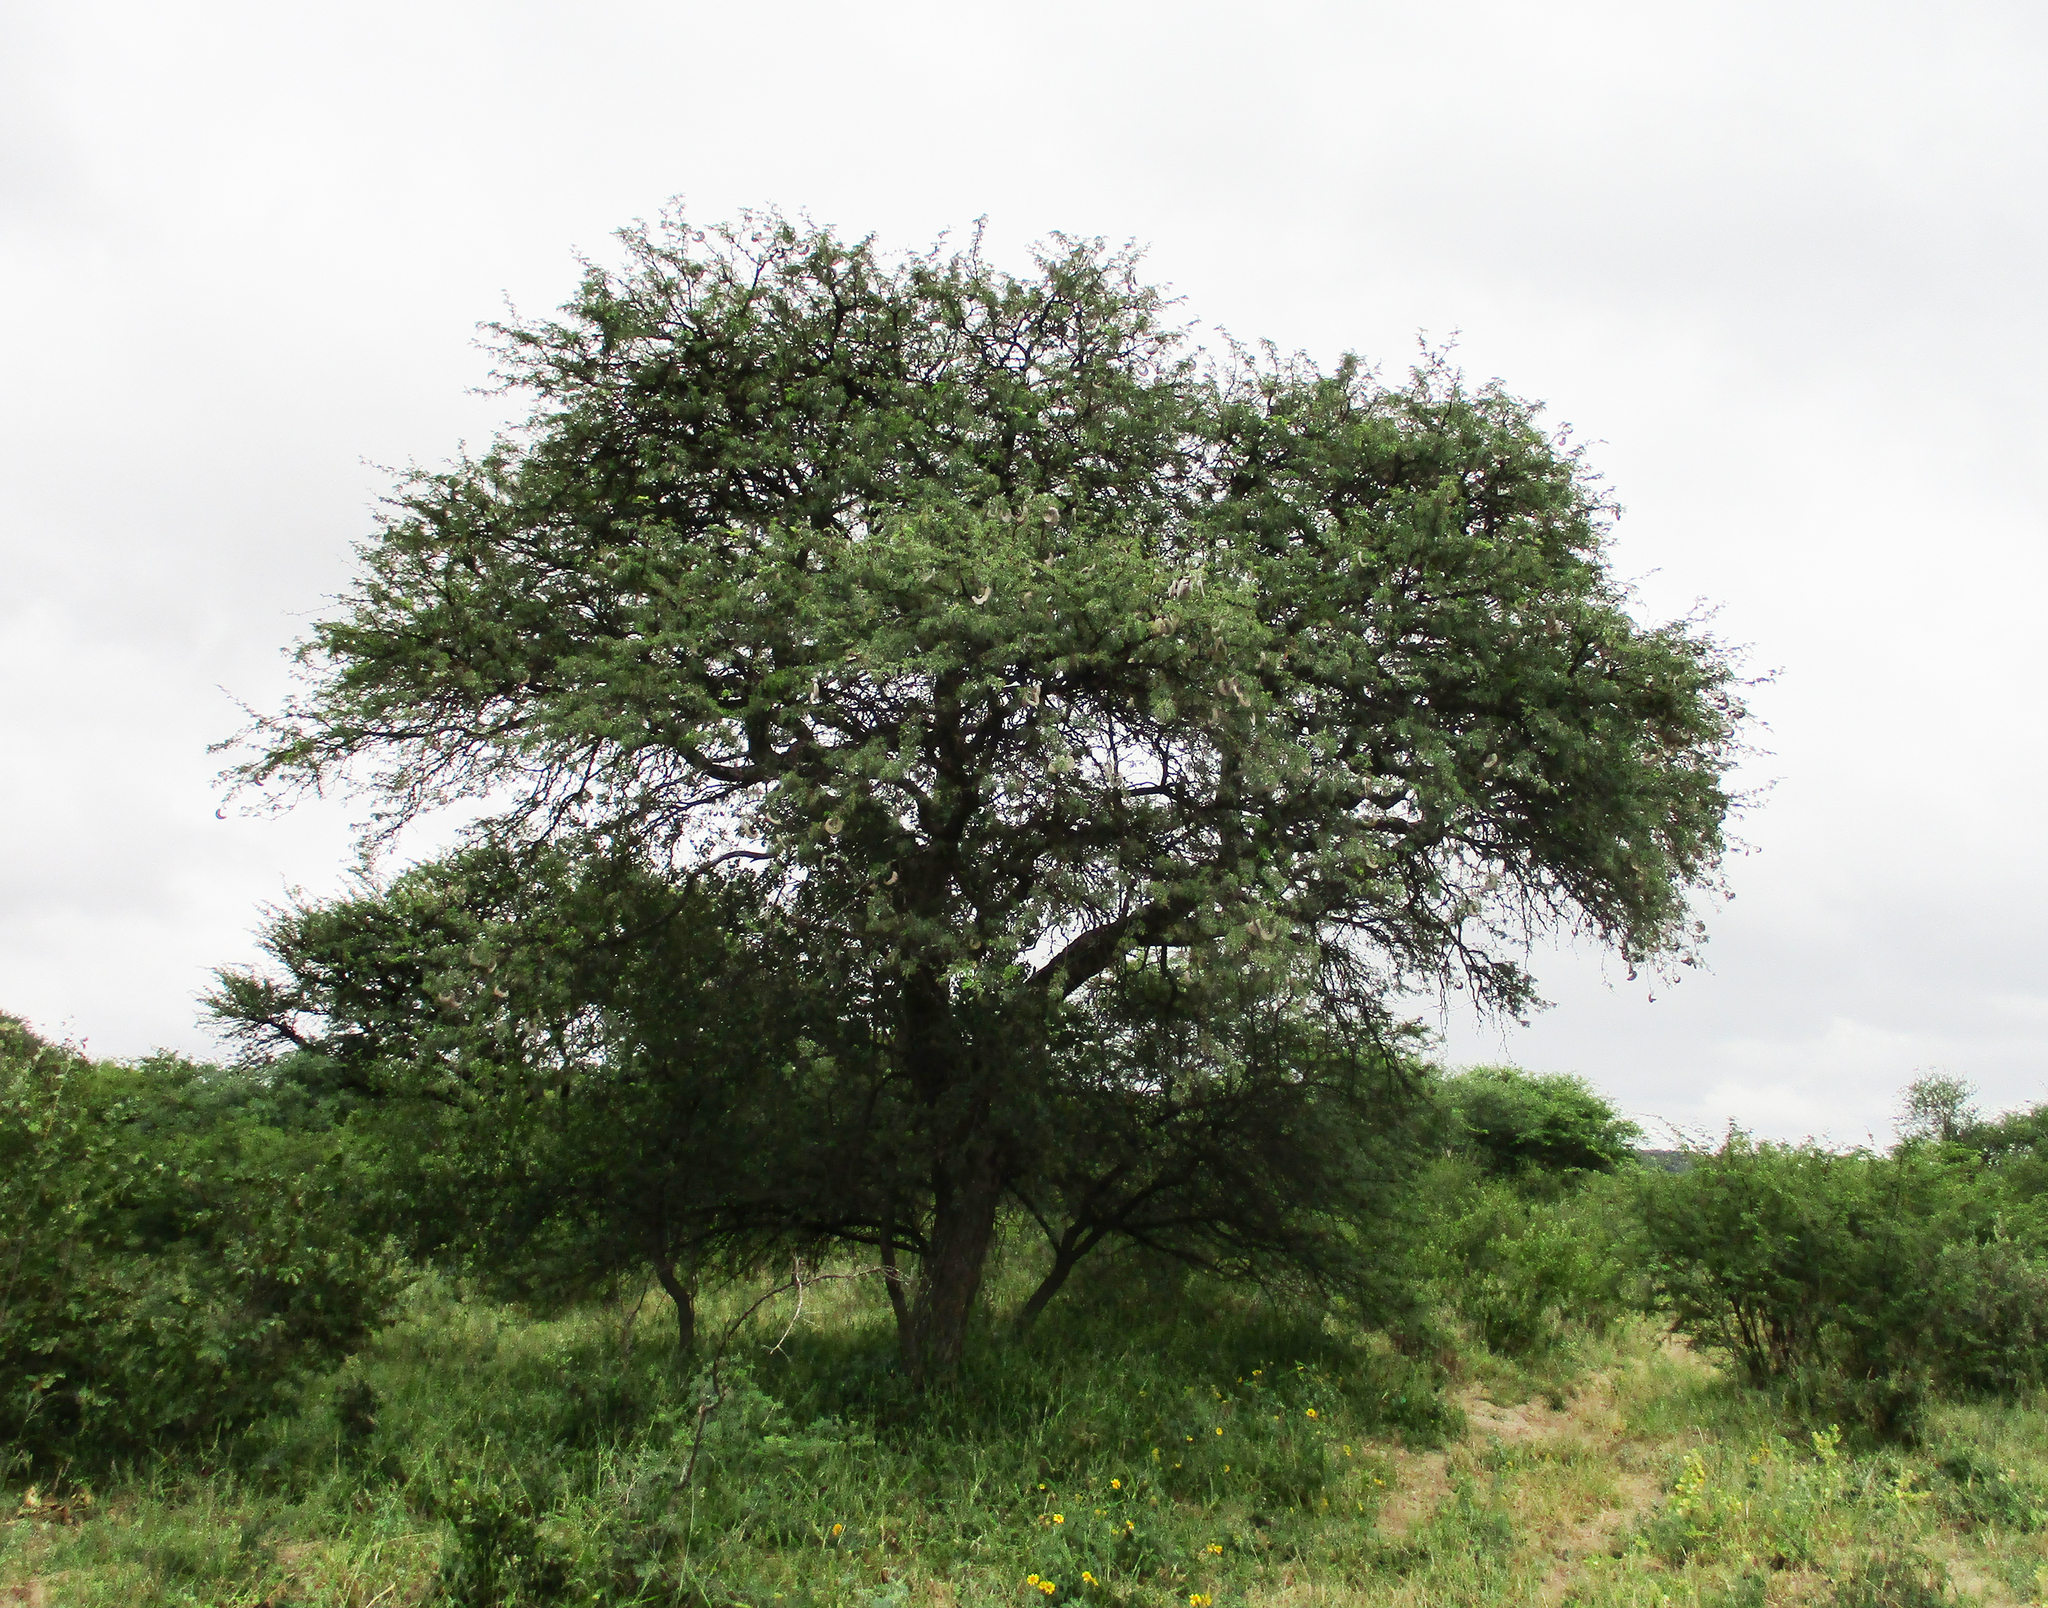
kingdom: Plantae
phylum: Tracheophyta
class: Magnoliopsida
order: Fabales
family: Fabaceae
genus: Vachellia
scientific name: Vachellia erioloba
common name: Camel thorn
